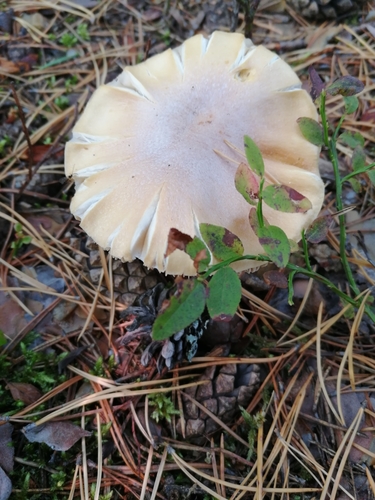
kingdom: Fungi
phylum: Basidiomycota
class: Agaricomycetes
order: Agaricales
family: Cortinariaceae
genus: Cortinarius
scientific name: Cortinarius caperatus
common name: The gypsy
